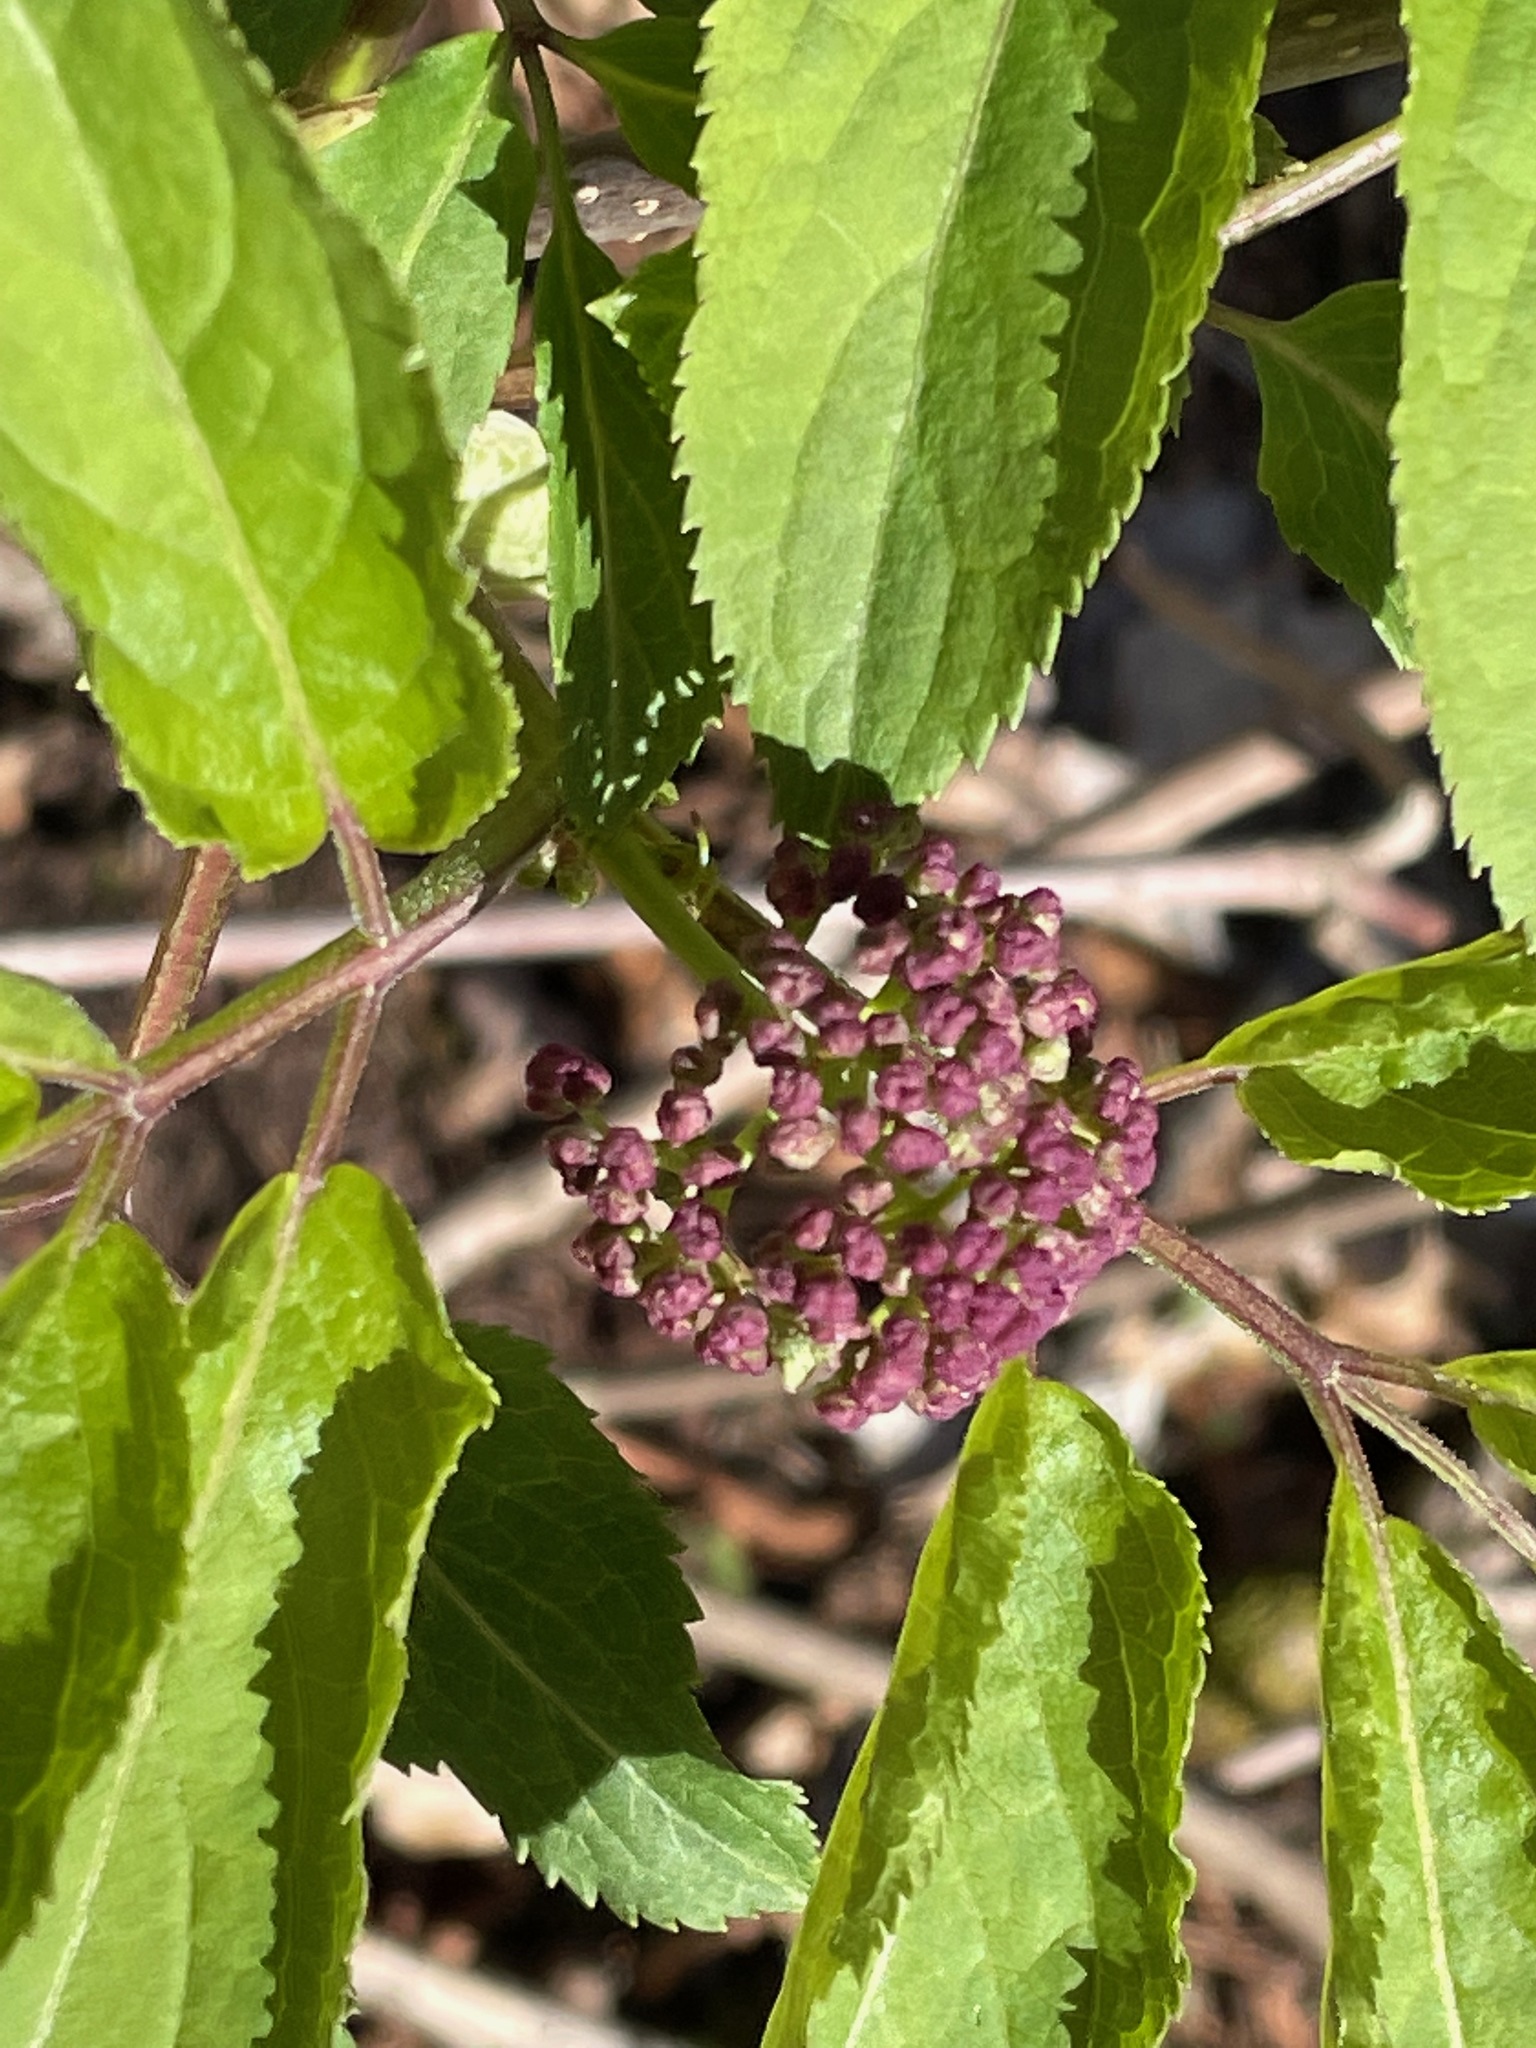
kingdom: Plantae
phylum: Tracheophyta
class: Magnoliopsida
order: Dipsacales
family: Viburnaceae
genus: Sambucus
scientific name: Sambucus racemosa
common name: Red-berried elder
